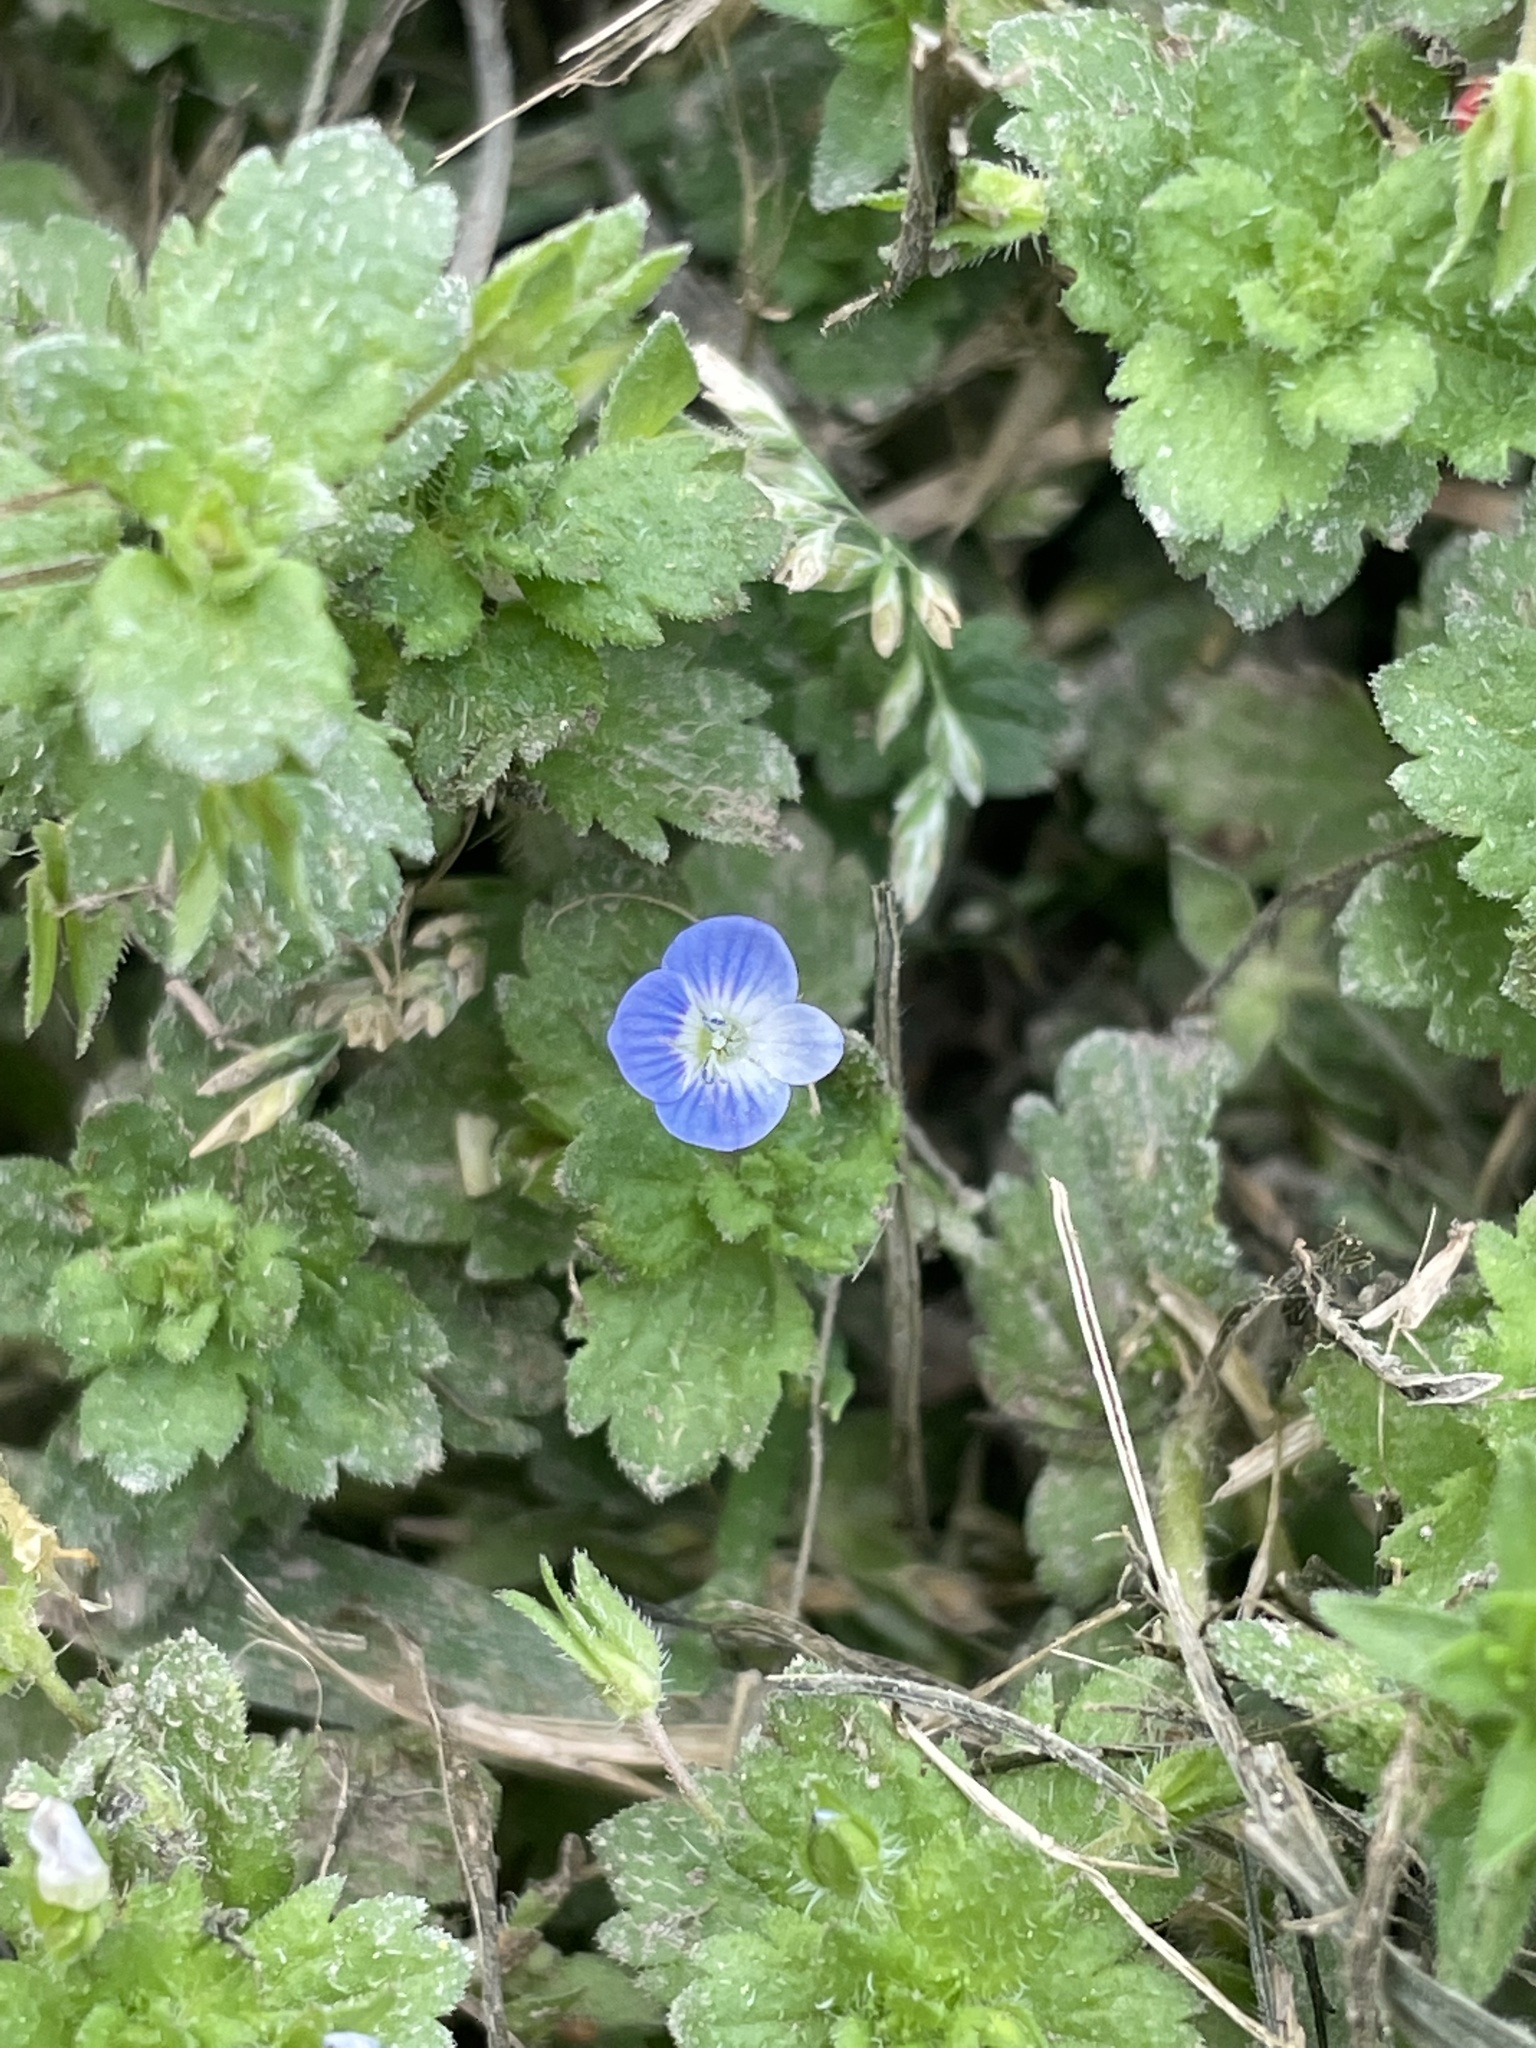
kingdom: Plantae
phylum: Tracheophyta
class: Magnoliopsida
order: Lamiales
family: Plantaginaceae
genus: Veronica
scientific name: Veronica persica
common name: Common field-speedwell
